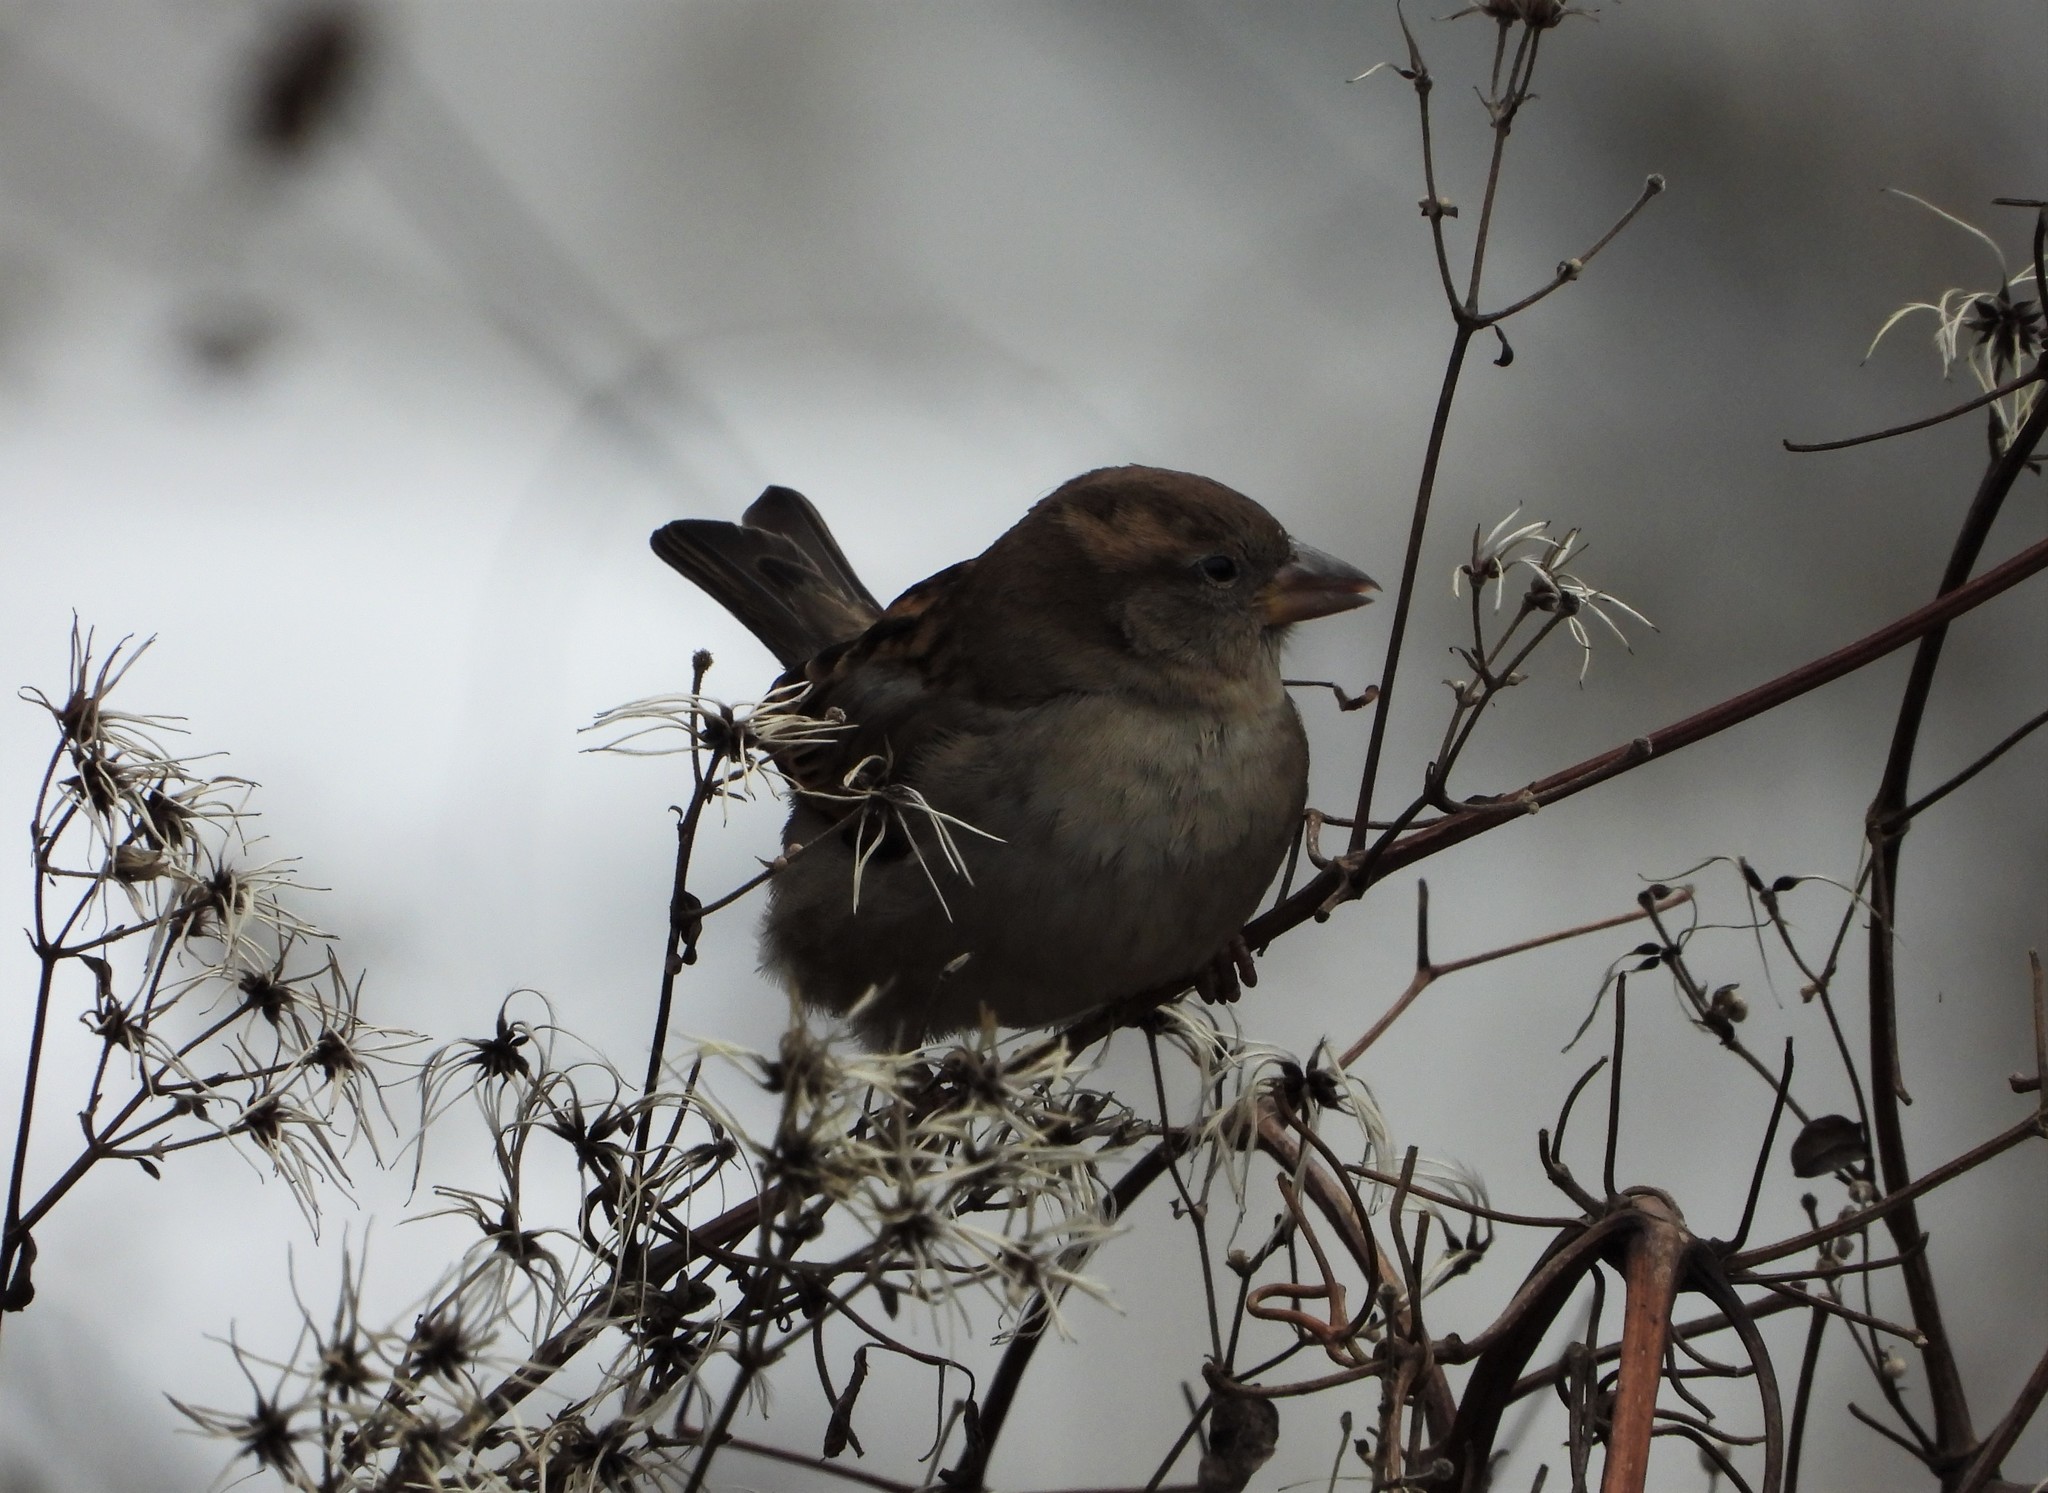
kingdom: Animalia
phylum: Chordata
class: Aves
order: Passeriformes
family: Passeridae
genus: Passer
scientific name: Passer domesticus
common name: House sparrow
